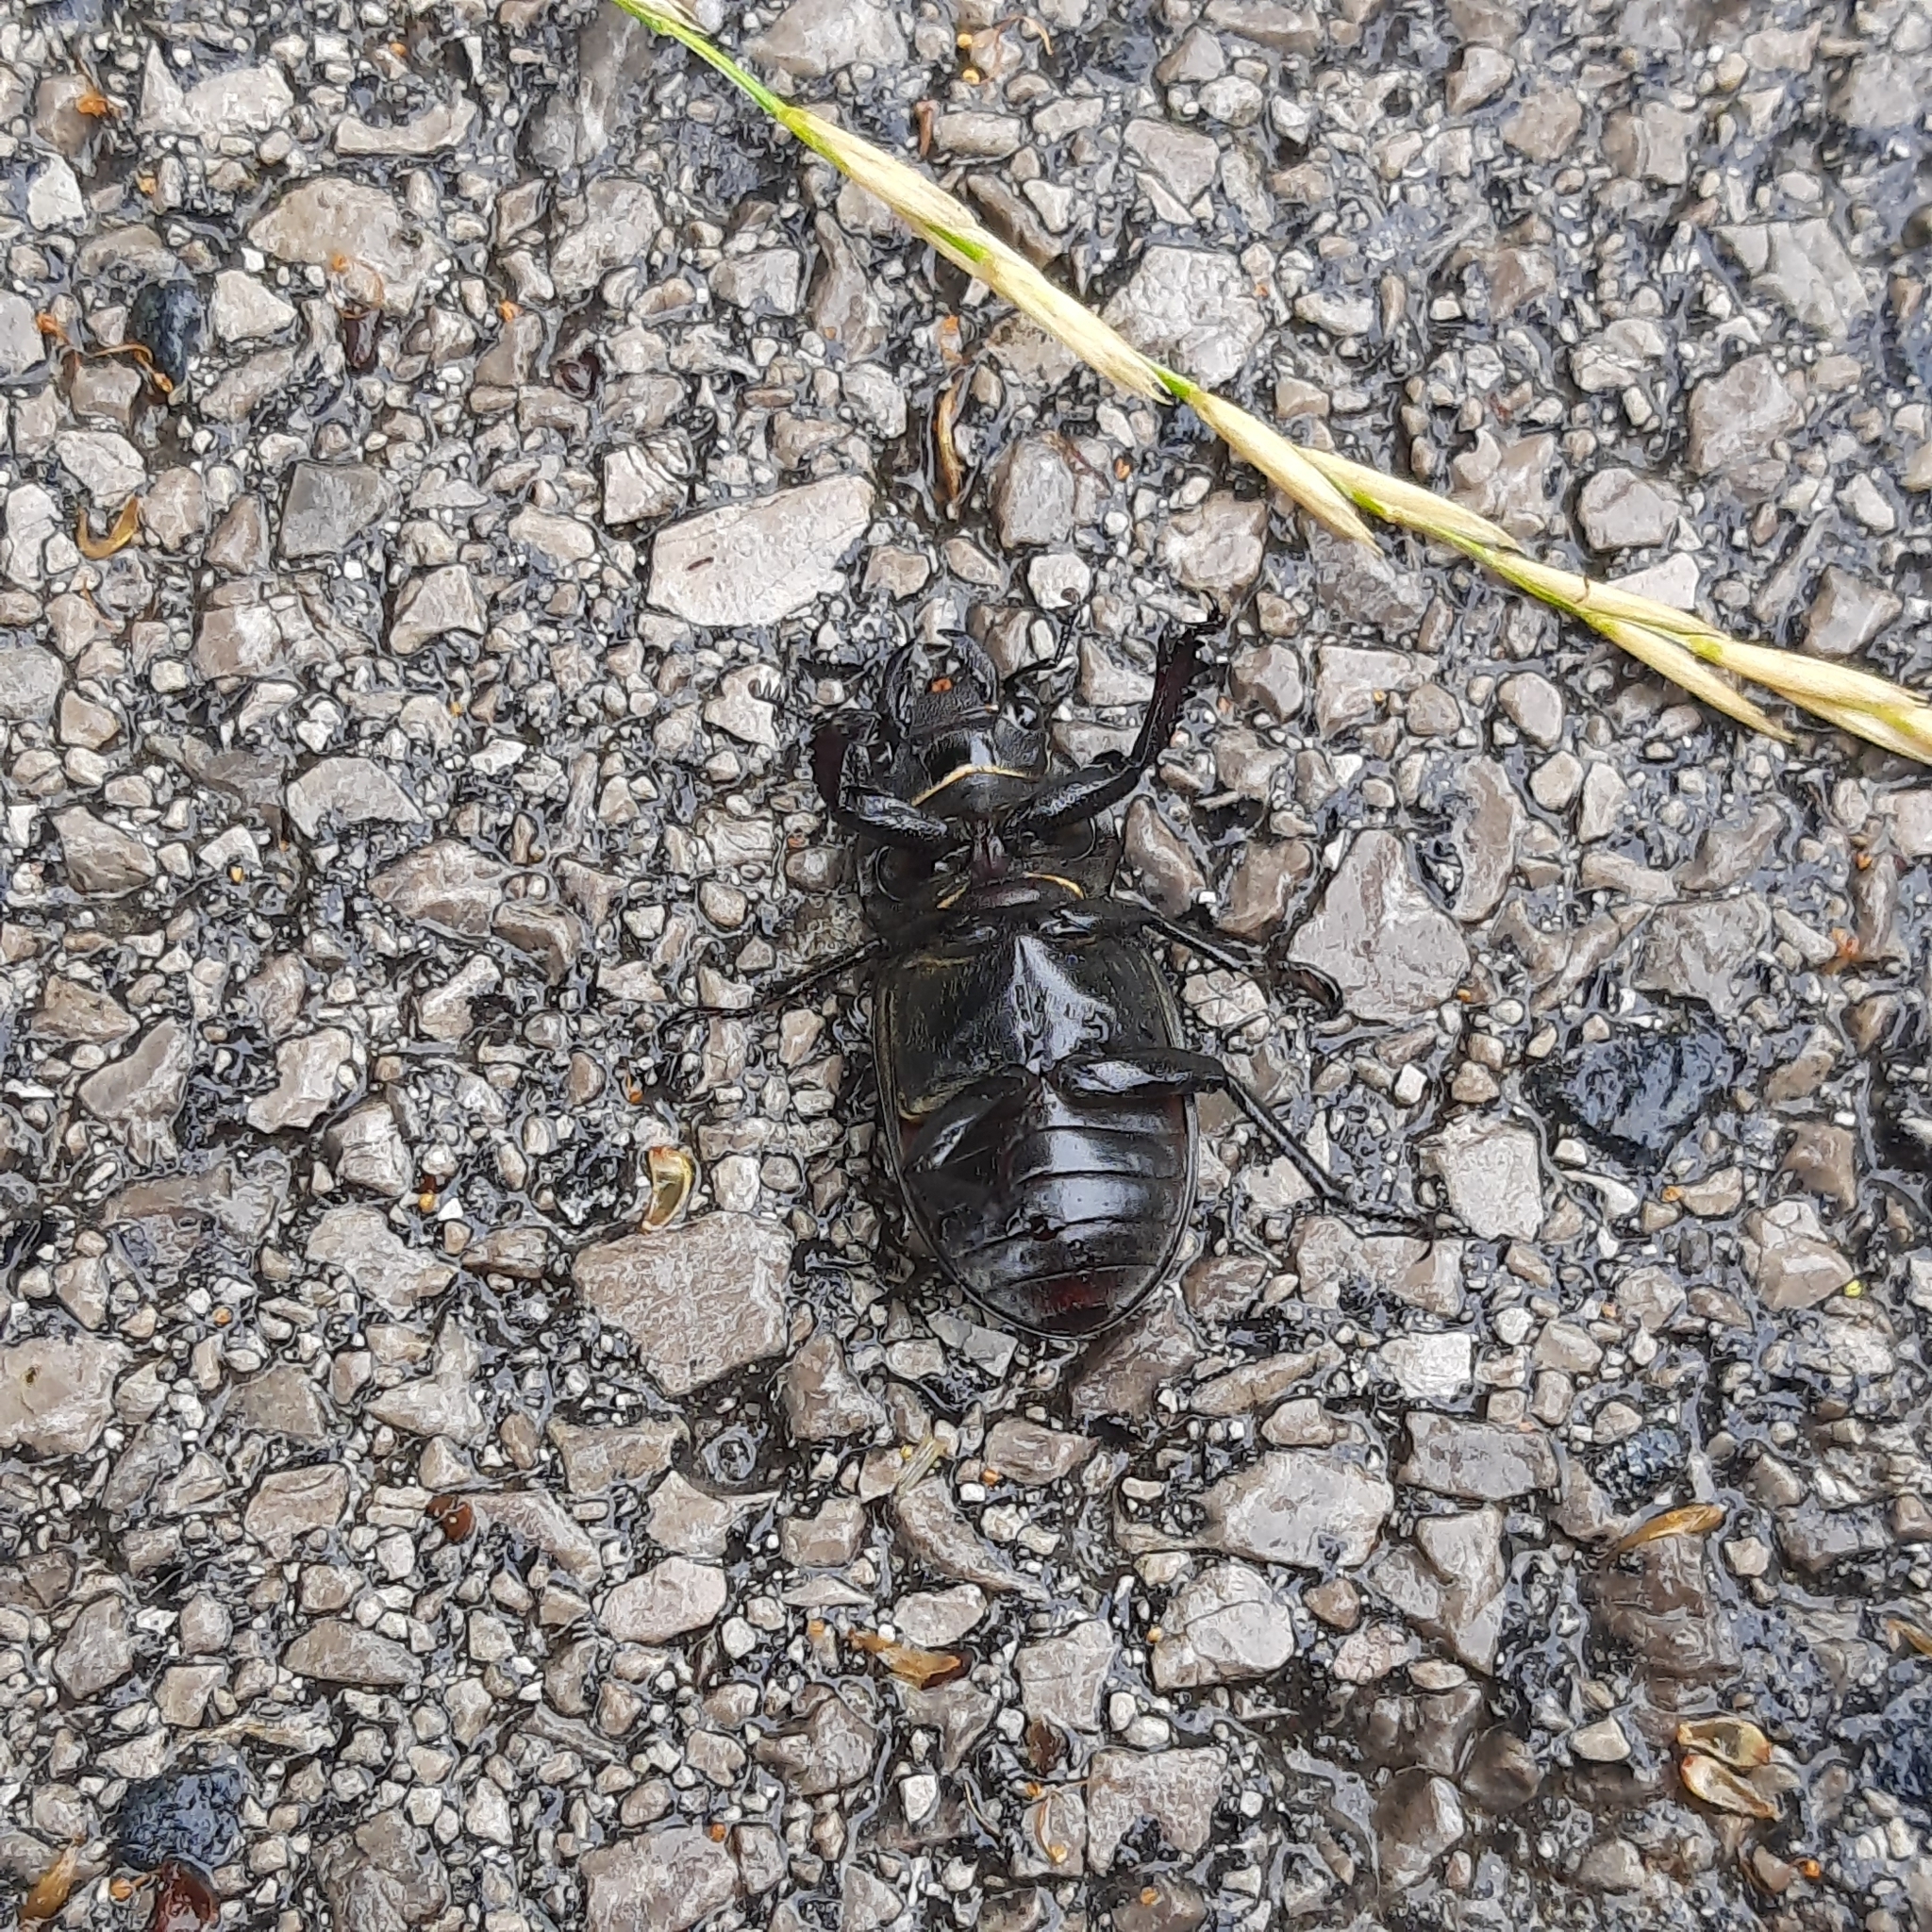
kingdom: Animalia
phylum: Arthropoda
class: Insecta
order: Coleoptera
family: Lucanidae
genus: Lucanus
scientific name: Lucanus cervus
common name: Stag beetle
